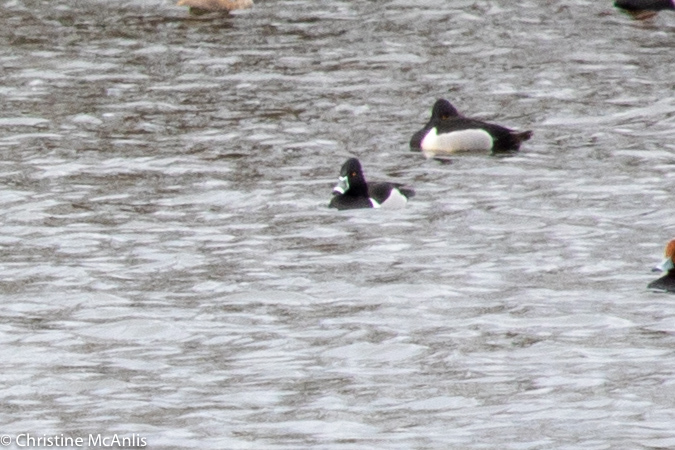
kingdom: Animalia
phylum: Chordata
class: Aves
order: Anseriformes
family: Anatidae
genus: Aythya
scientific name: Aythya collaris
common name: Ring-necked duck
